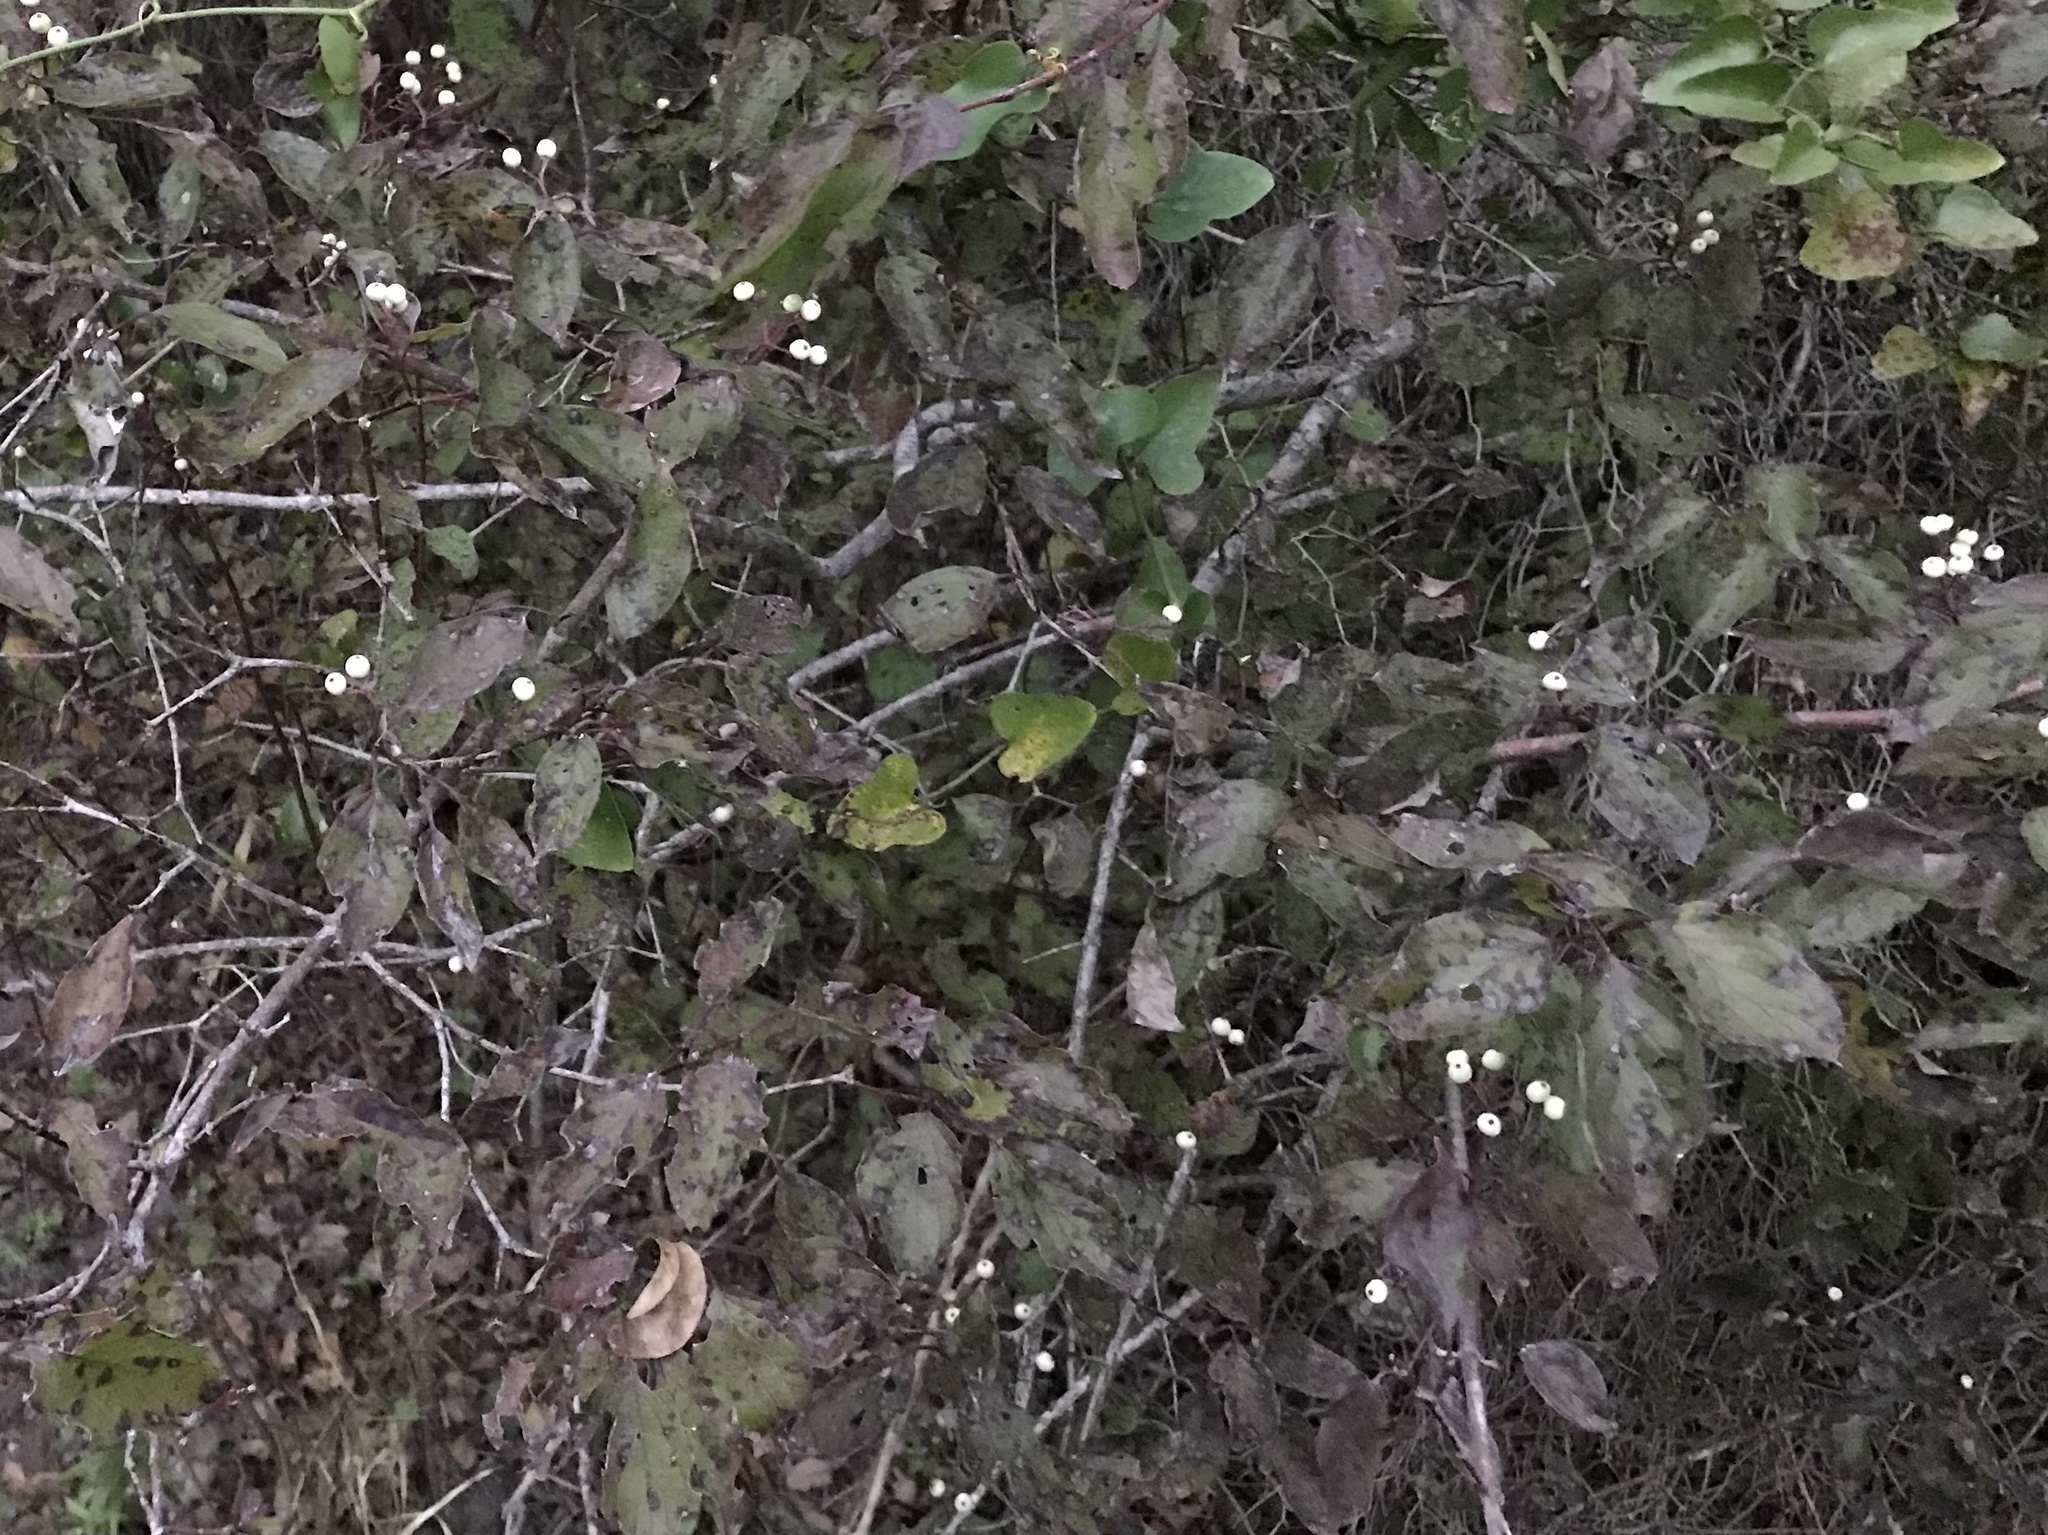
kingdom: Plantae
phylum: Tracheophyta
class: Magnoliopsida
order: Cornales
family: Cornaceae
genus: Cornus
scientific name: Cornus drummondii
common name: Rough-leaf dogwood
